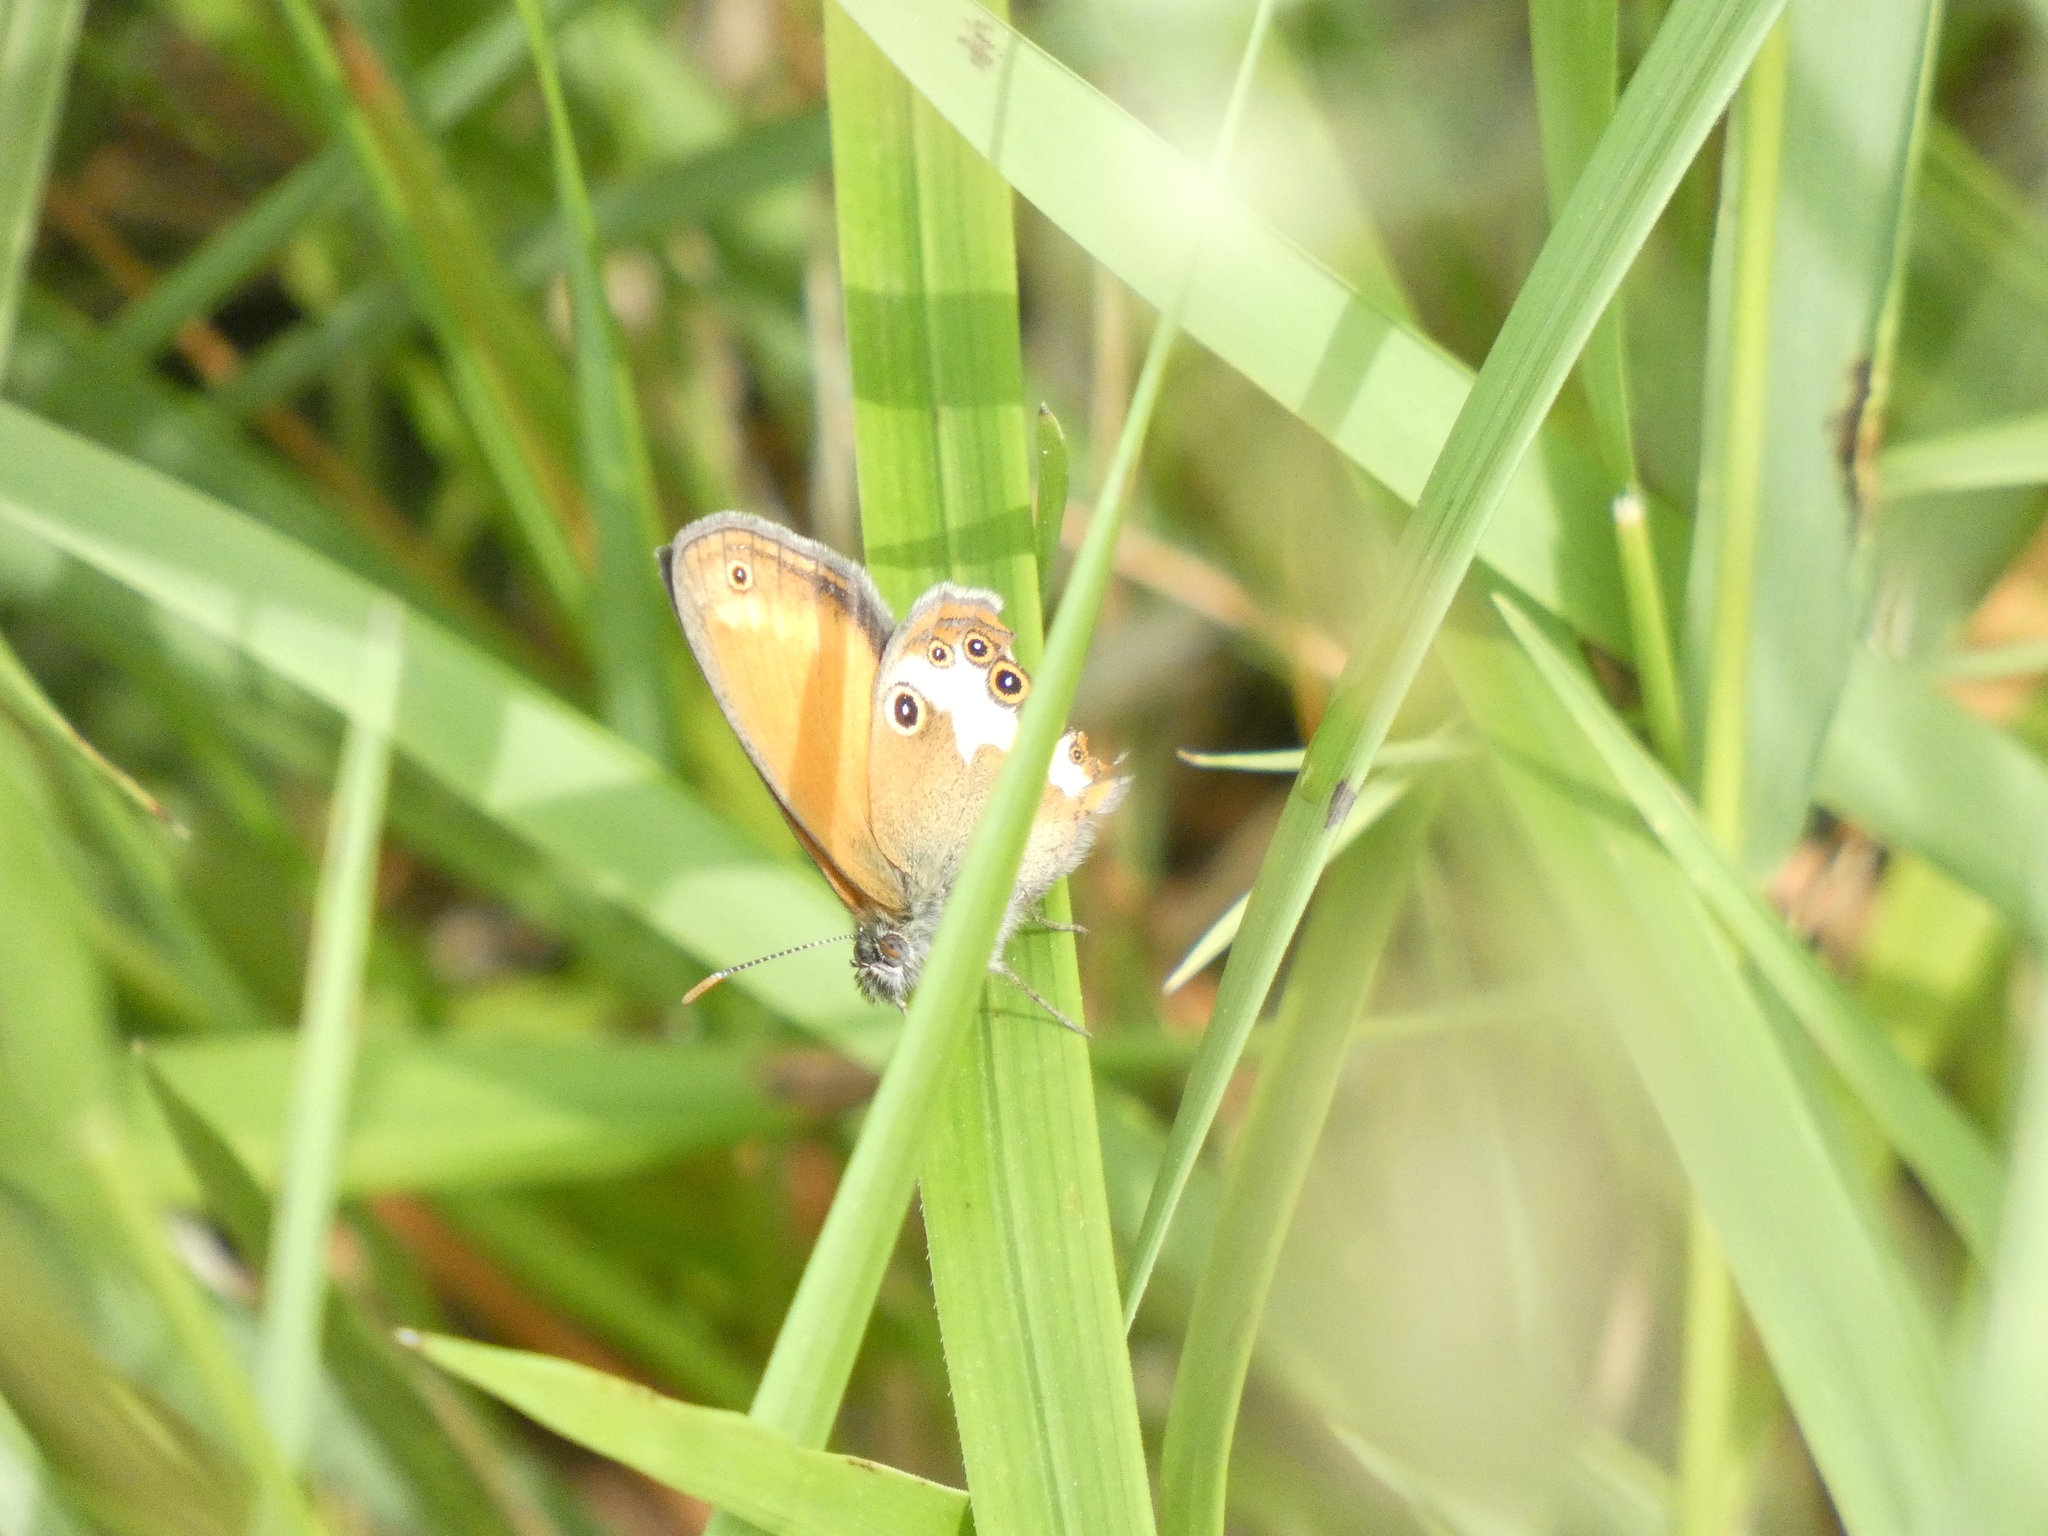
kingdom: Animalia
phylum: Arthropoda
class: Insecta
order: Lepidoptera
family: Nymphalidae
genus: Coenonympha
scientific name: Coenonympha arcania
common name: Pearly heath
